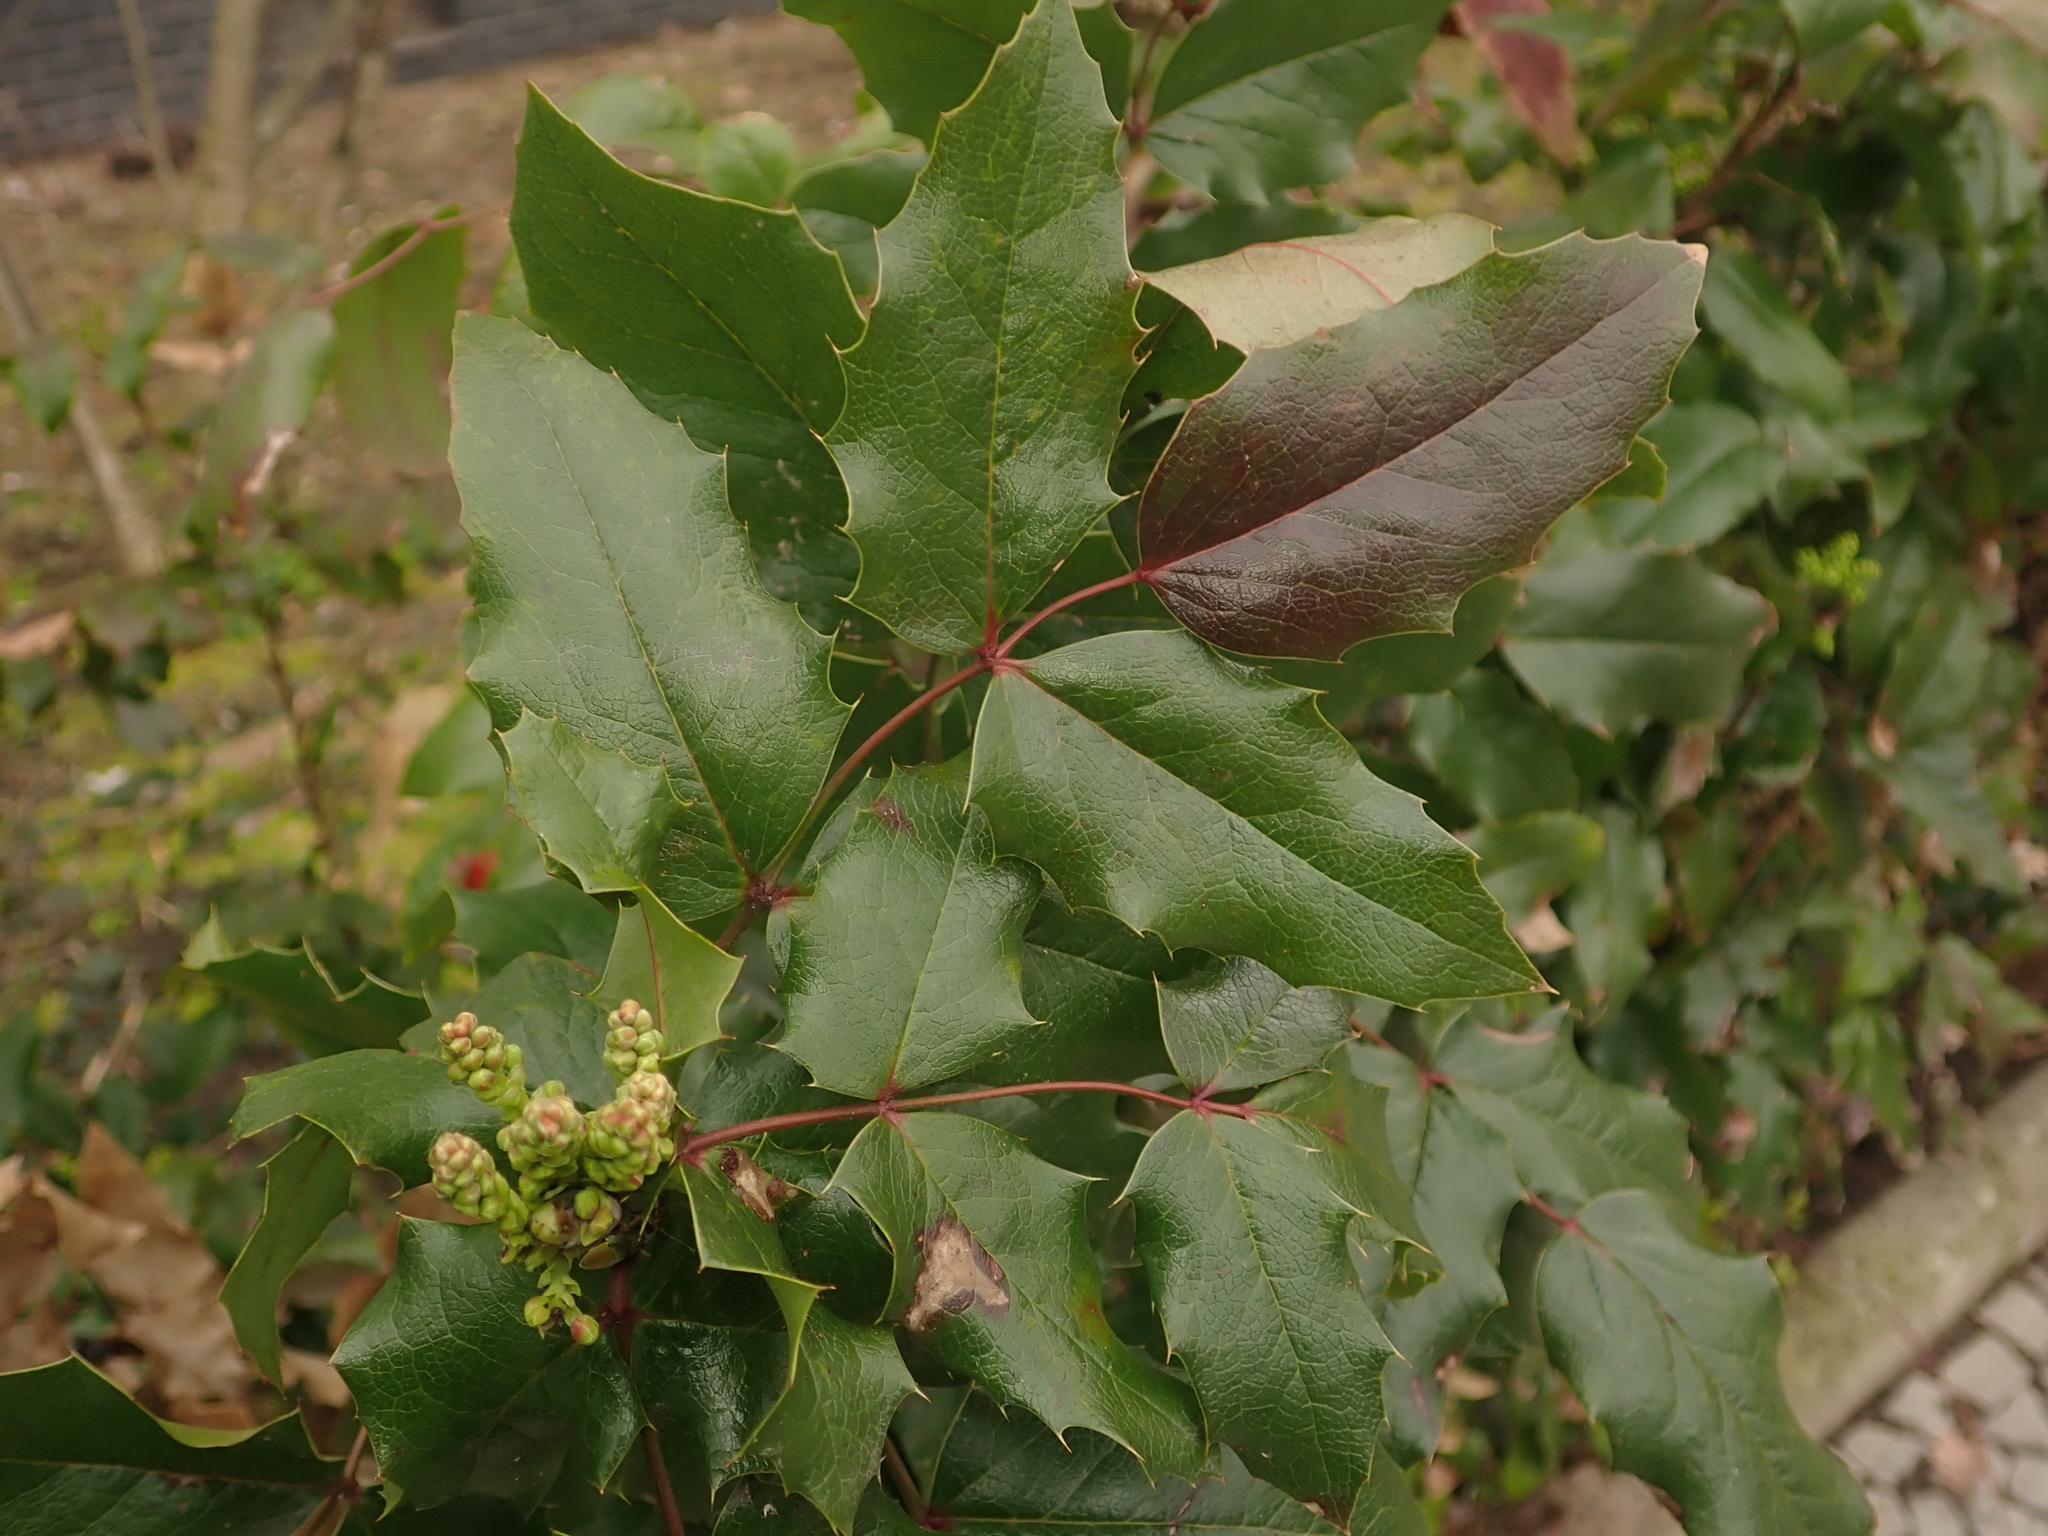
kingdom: Plantae
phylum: Tracheophyta
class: Magnoliopsida
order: Ranunculales
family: Berberidaceae
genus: Mahonia
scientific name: Mahonia aquifolium
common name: Oregon-grape
